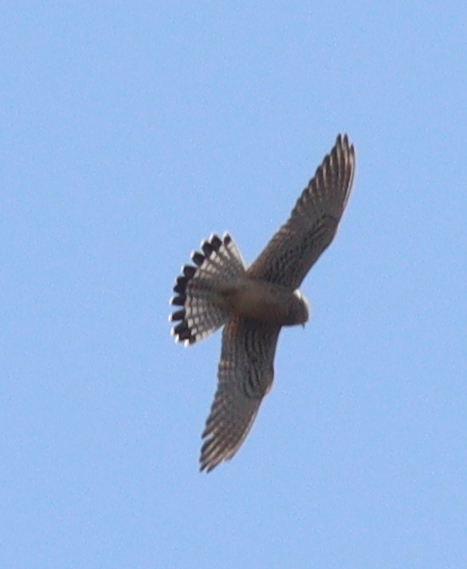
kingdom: Animalia
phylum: Chordata
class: Aves
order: Falconiformes
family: Falconidae
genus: Falco
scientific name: Falco tinnunculus
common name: Common kestrel
